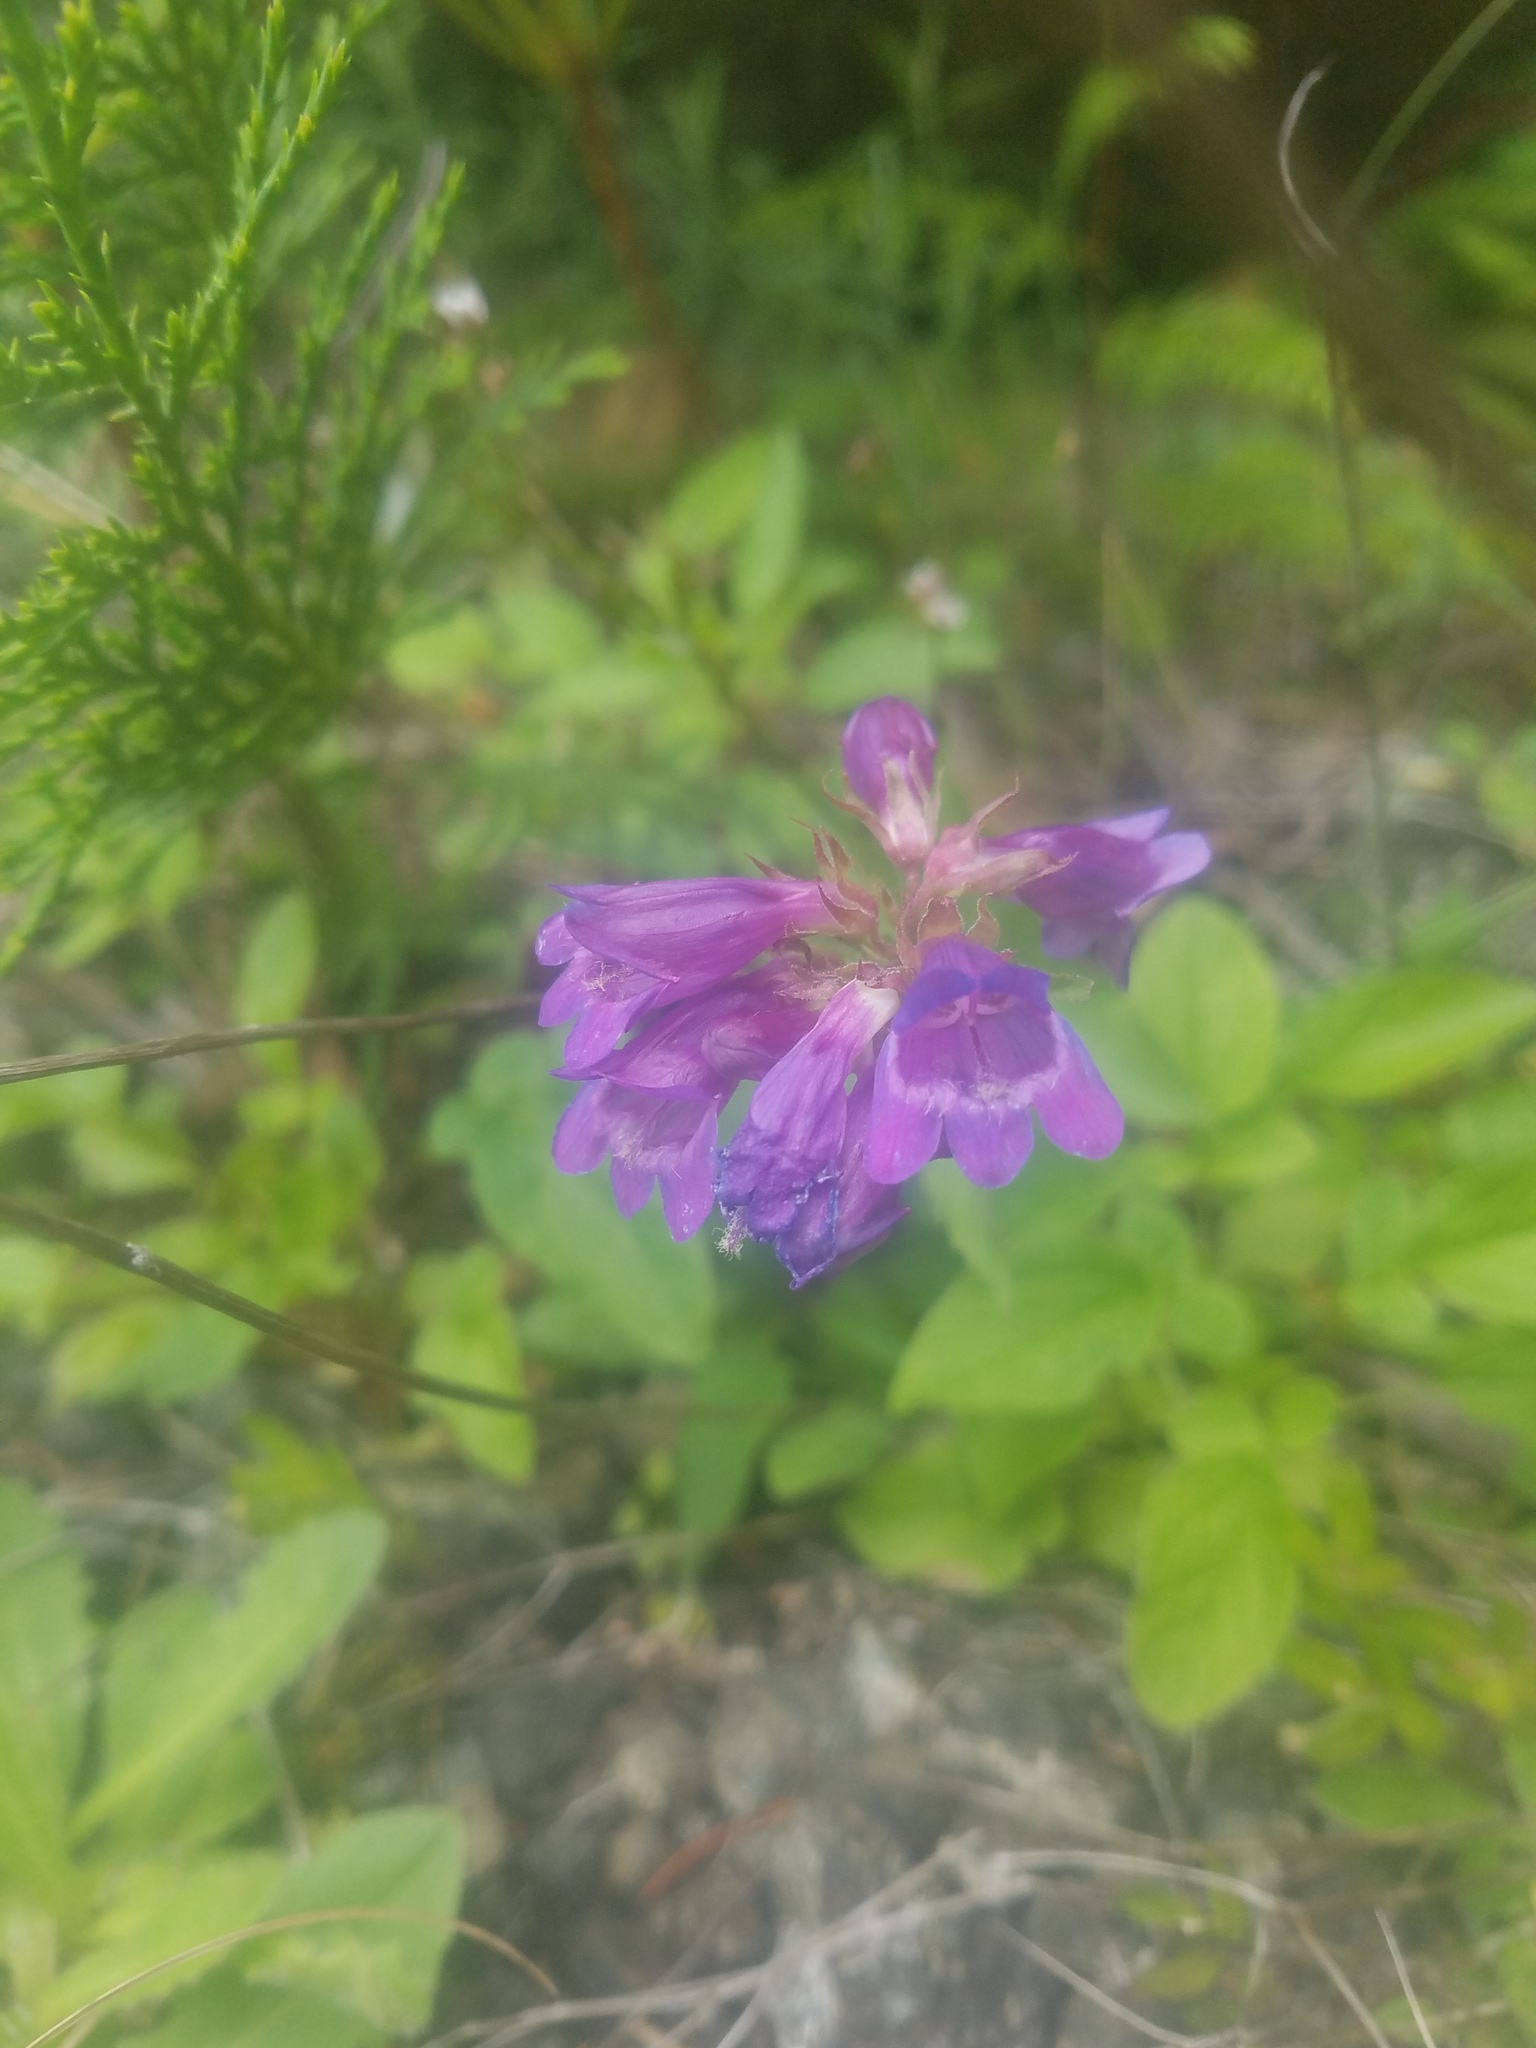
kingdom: Plantae
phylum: Tracheophyta
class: Magnoliopsida
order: Lamiales
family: Plantaginaceae
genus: Penstemon
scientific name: Penstemon serrulatus
